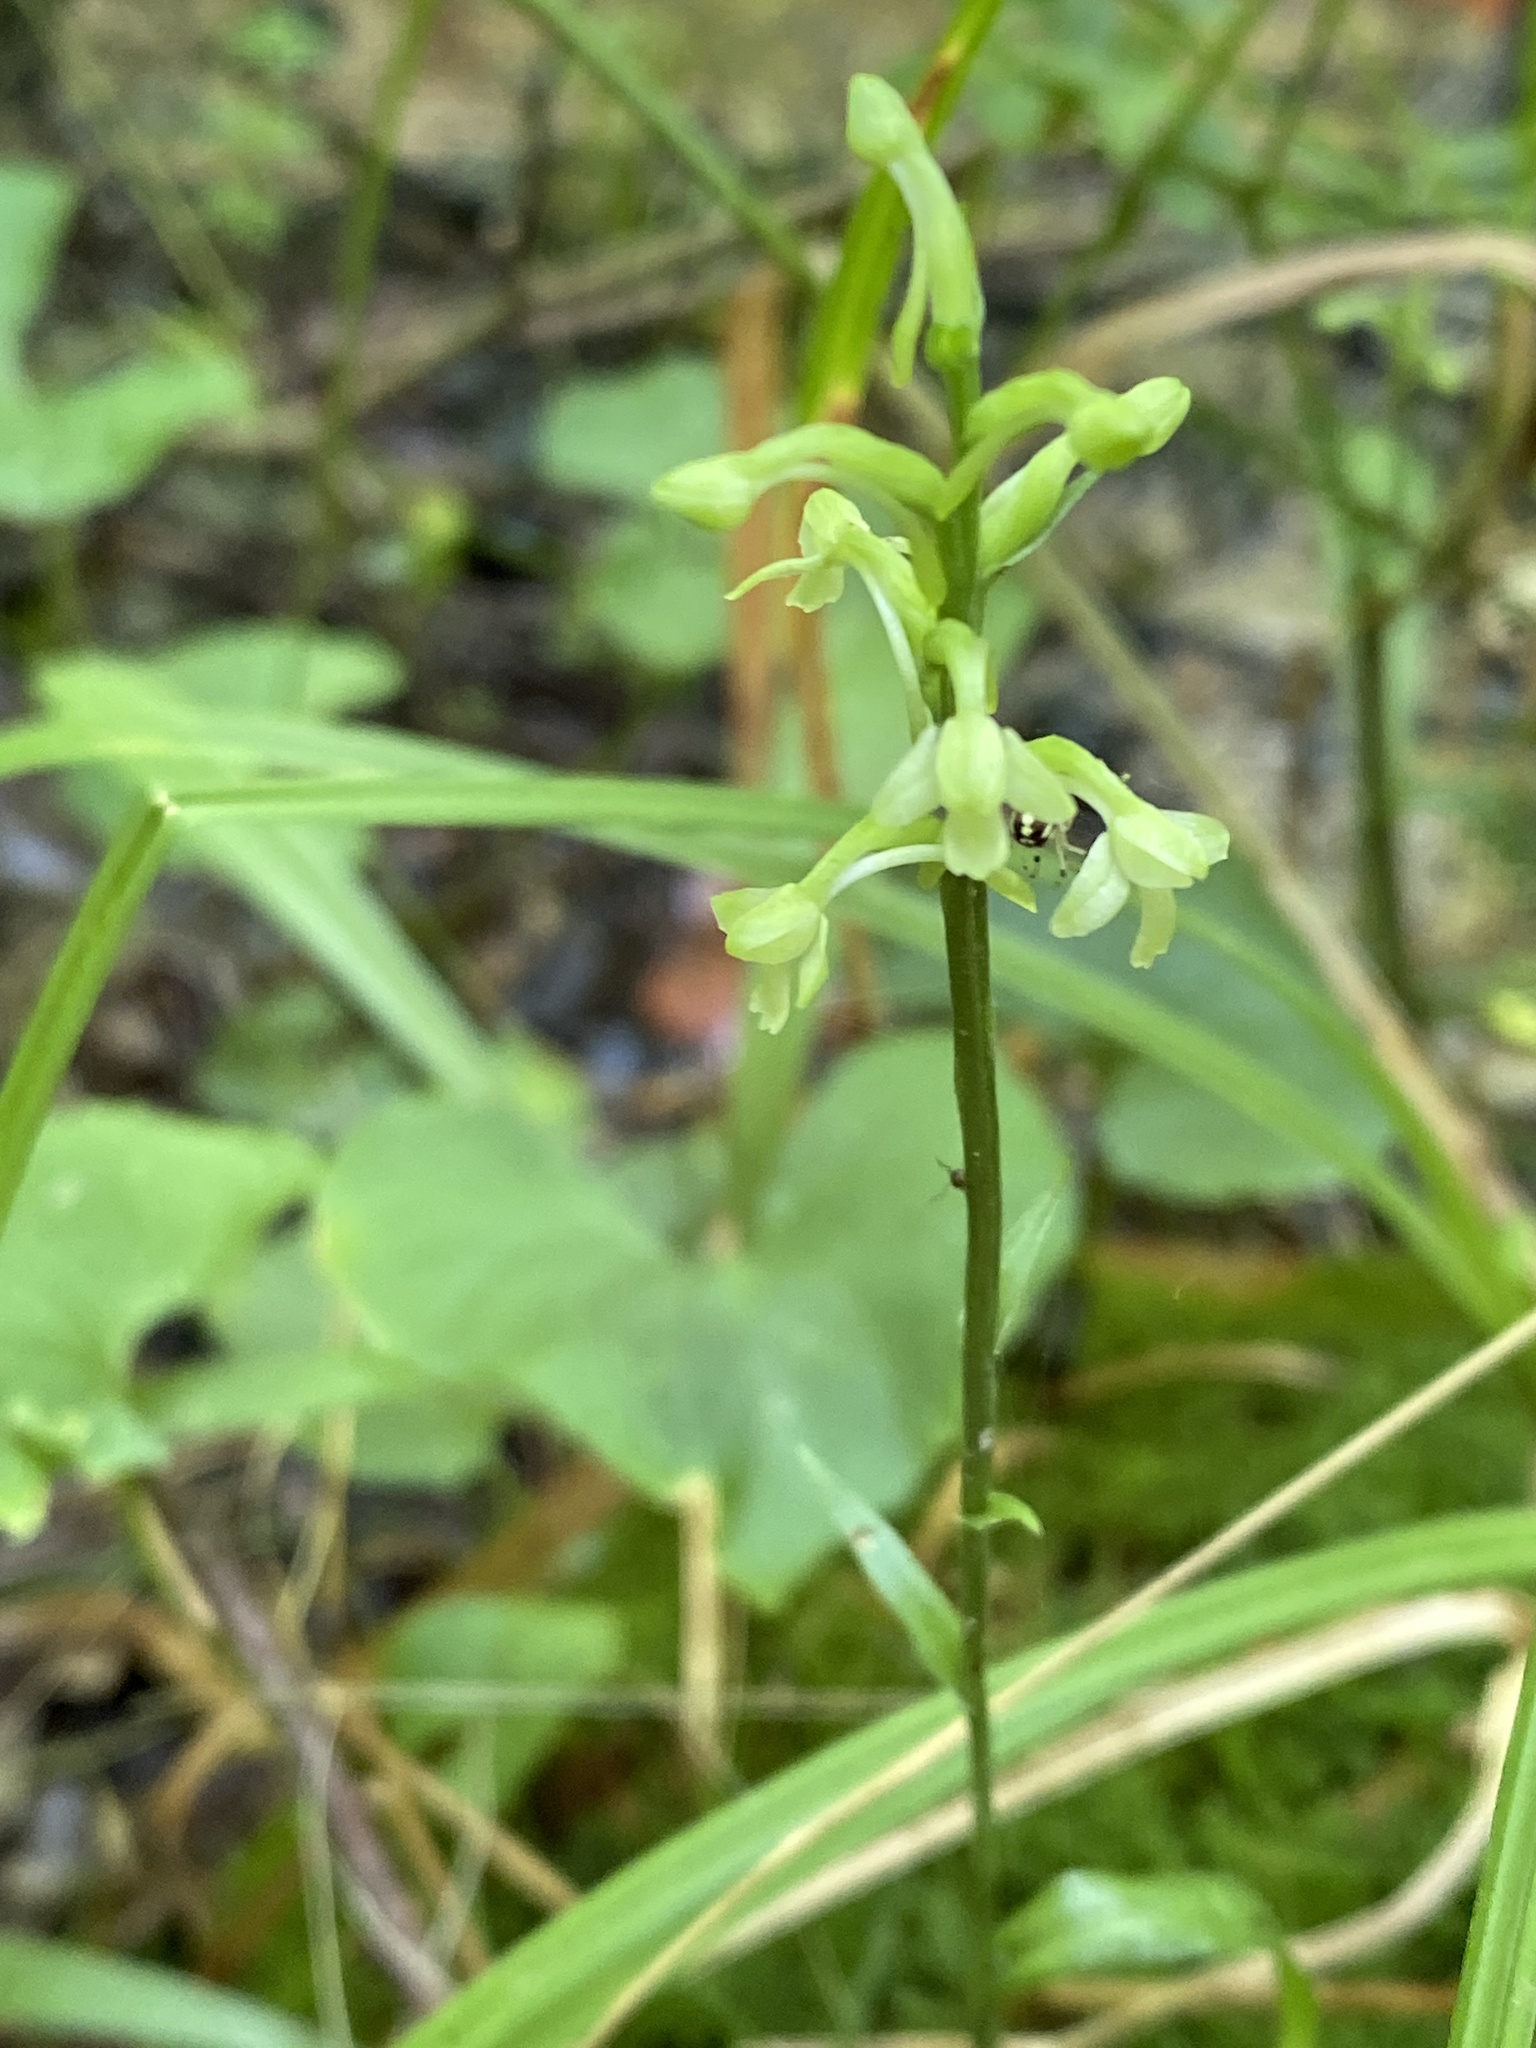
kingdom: Plantae
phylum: Tracheophyta
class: Liliopsida
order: Asparagales
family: Orchidaceae
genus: Platanthera
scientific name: Platanthera clavellata
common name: Club-spur orchid
